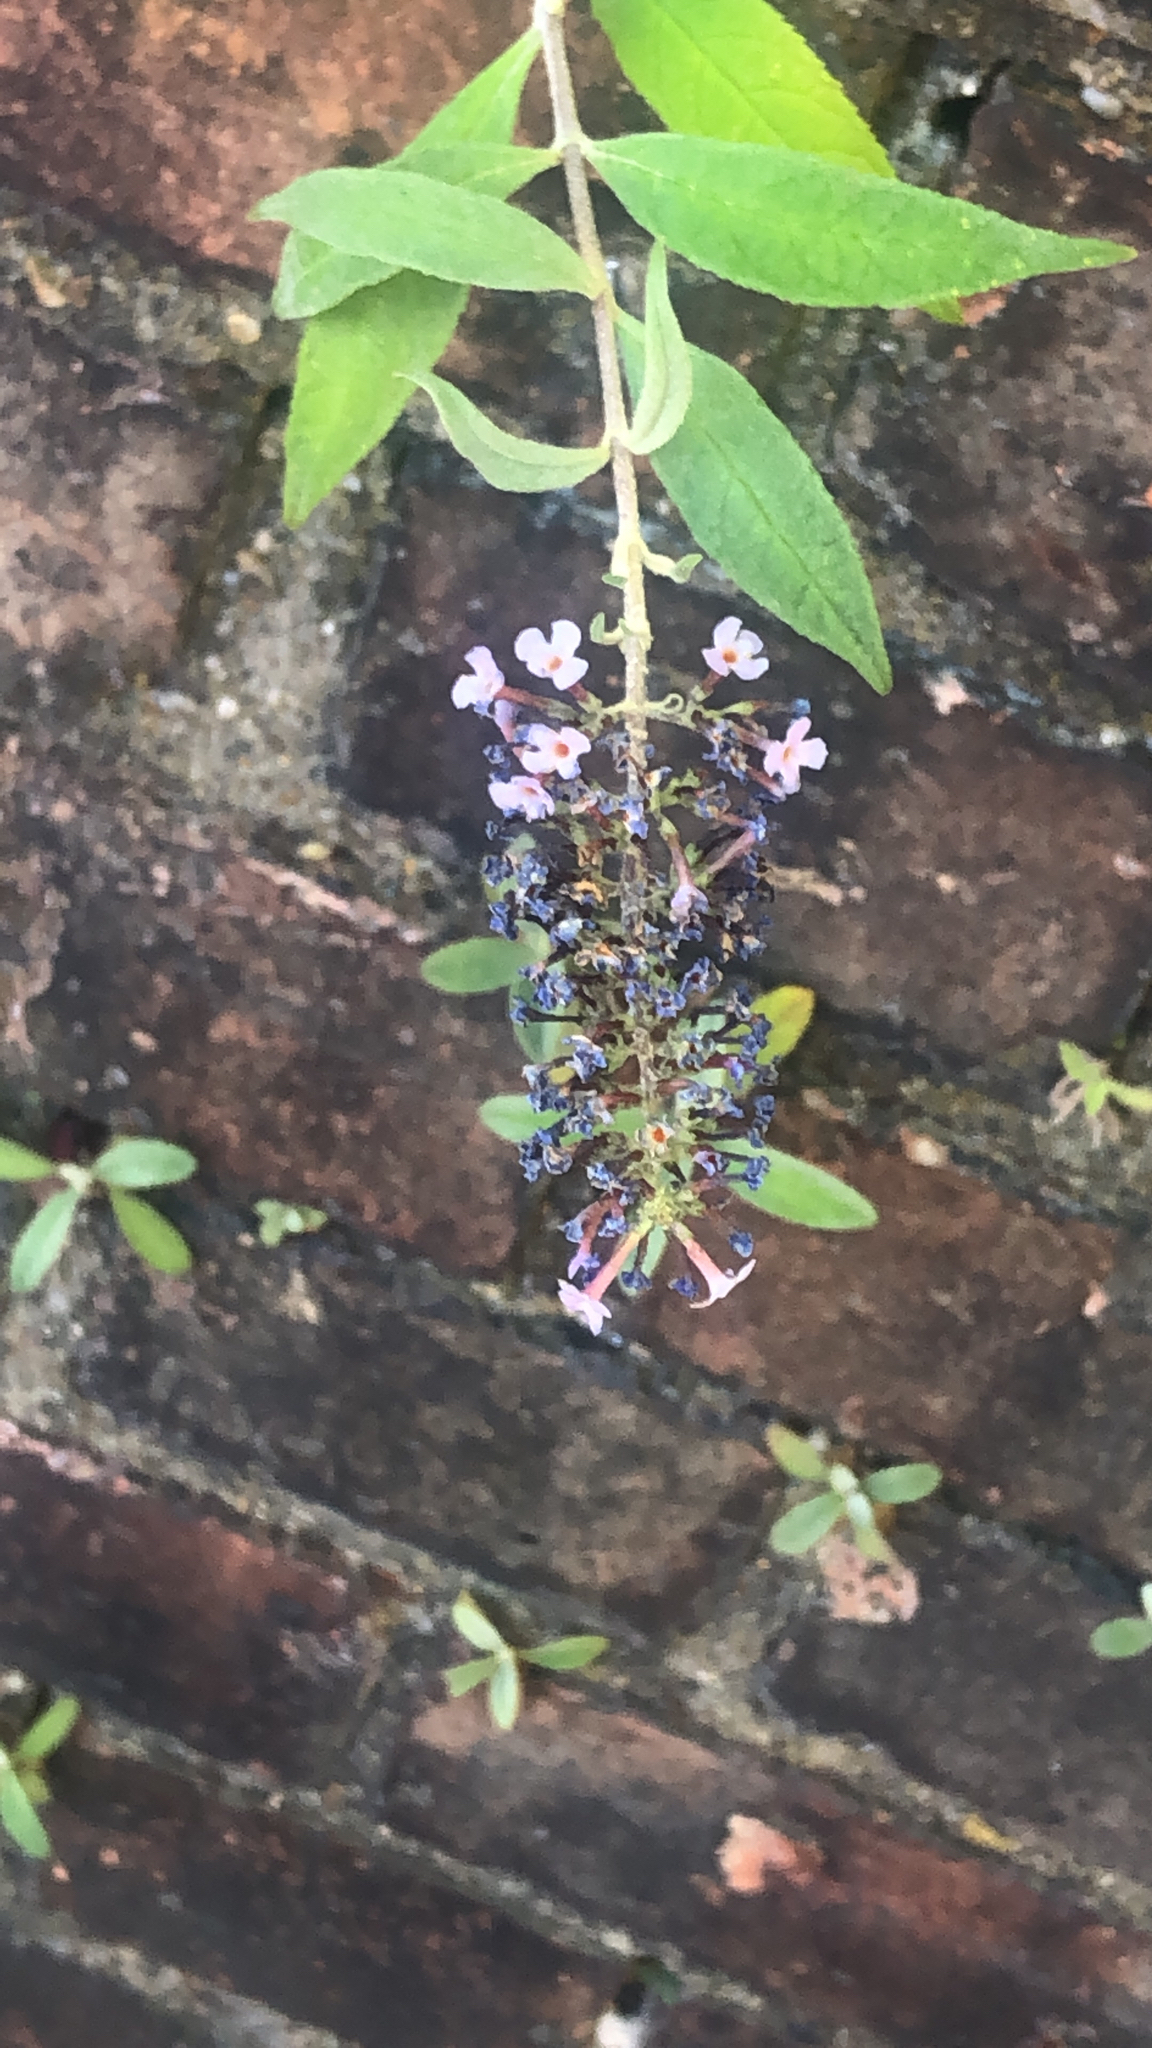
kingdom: Plantae
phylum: Tracheophyta
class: Magnoliopsida
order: Lamiales
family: Scrophulariaceae
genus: Buddleja
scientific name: Buddleja davidii
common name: Butterfly-bush
